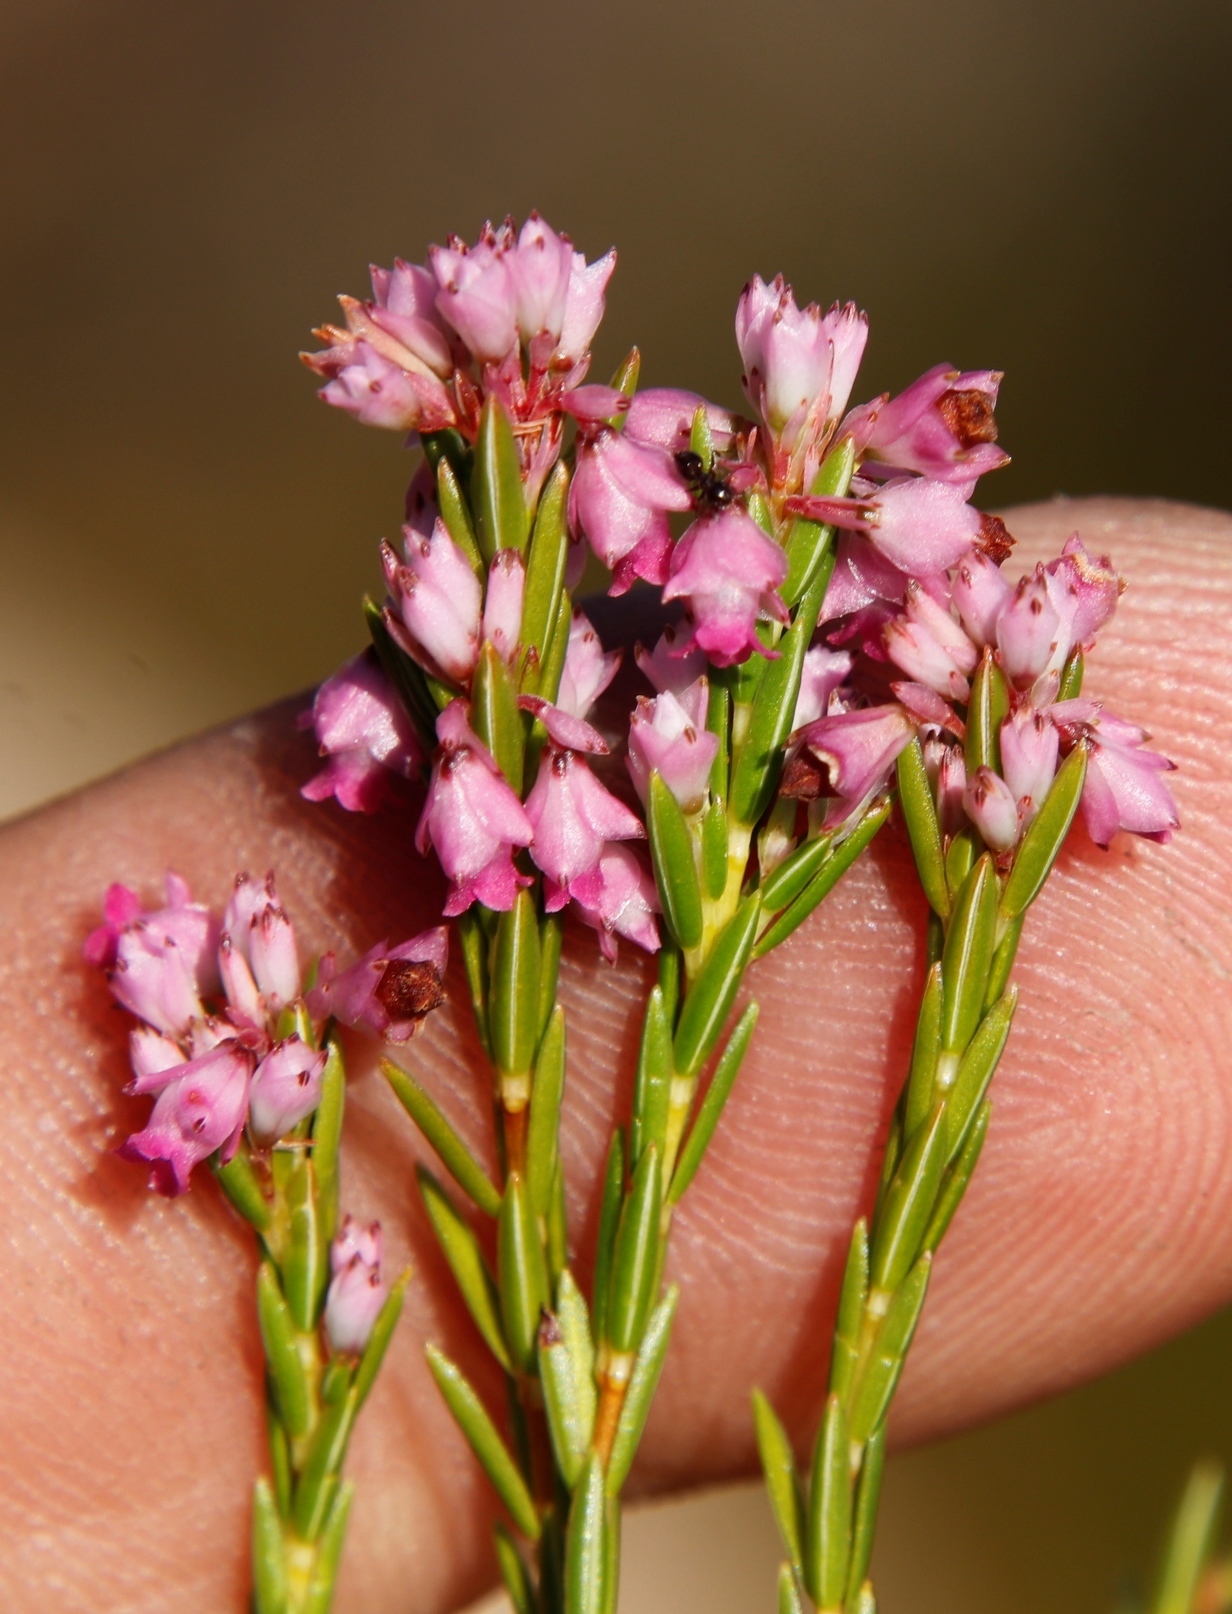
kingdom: Plantae
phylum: Tracheophyta
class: Magnoliopsida
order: Ericales
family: Ericaceae
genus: Erica
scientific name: Erica corifolia
